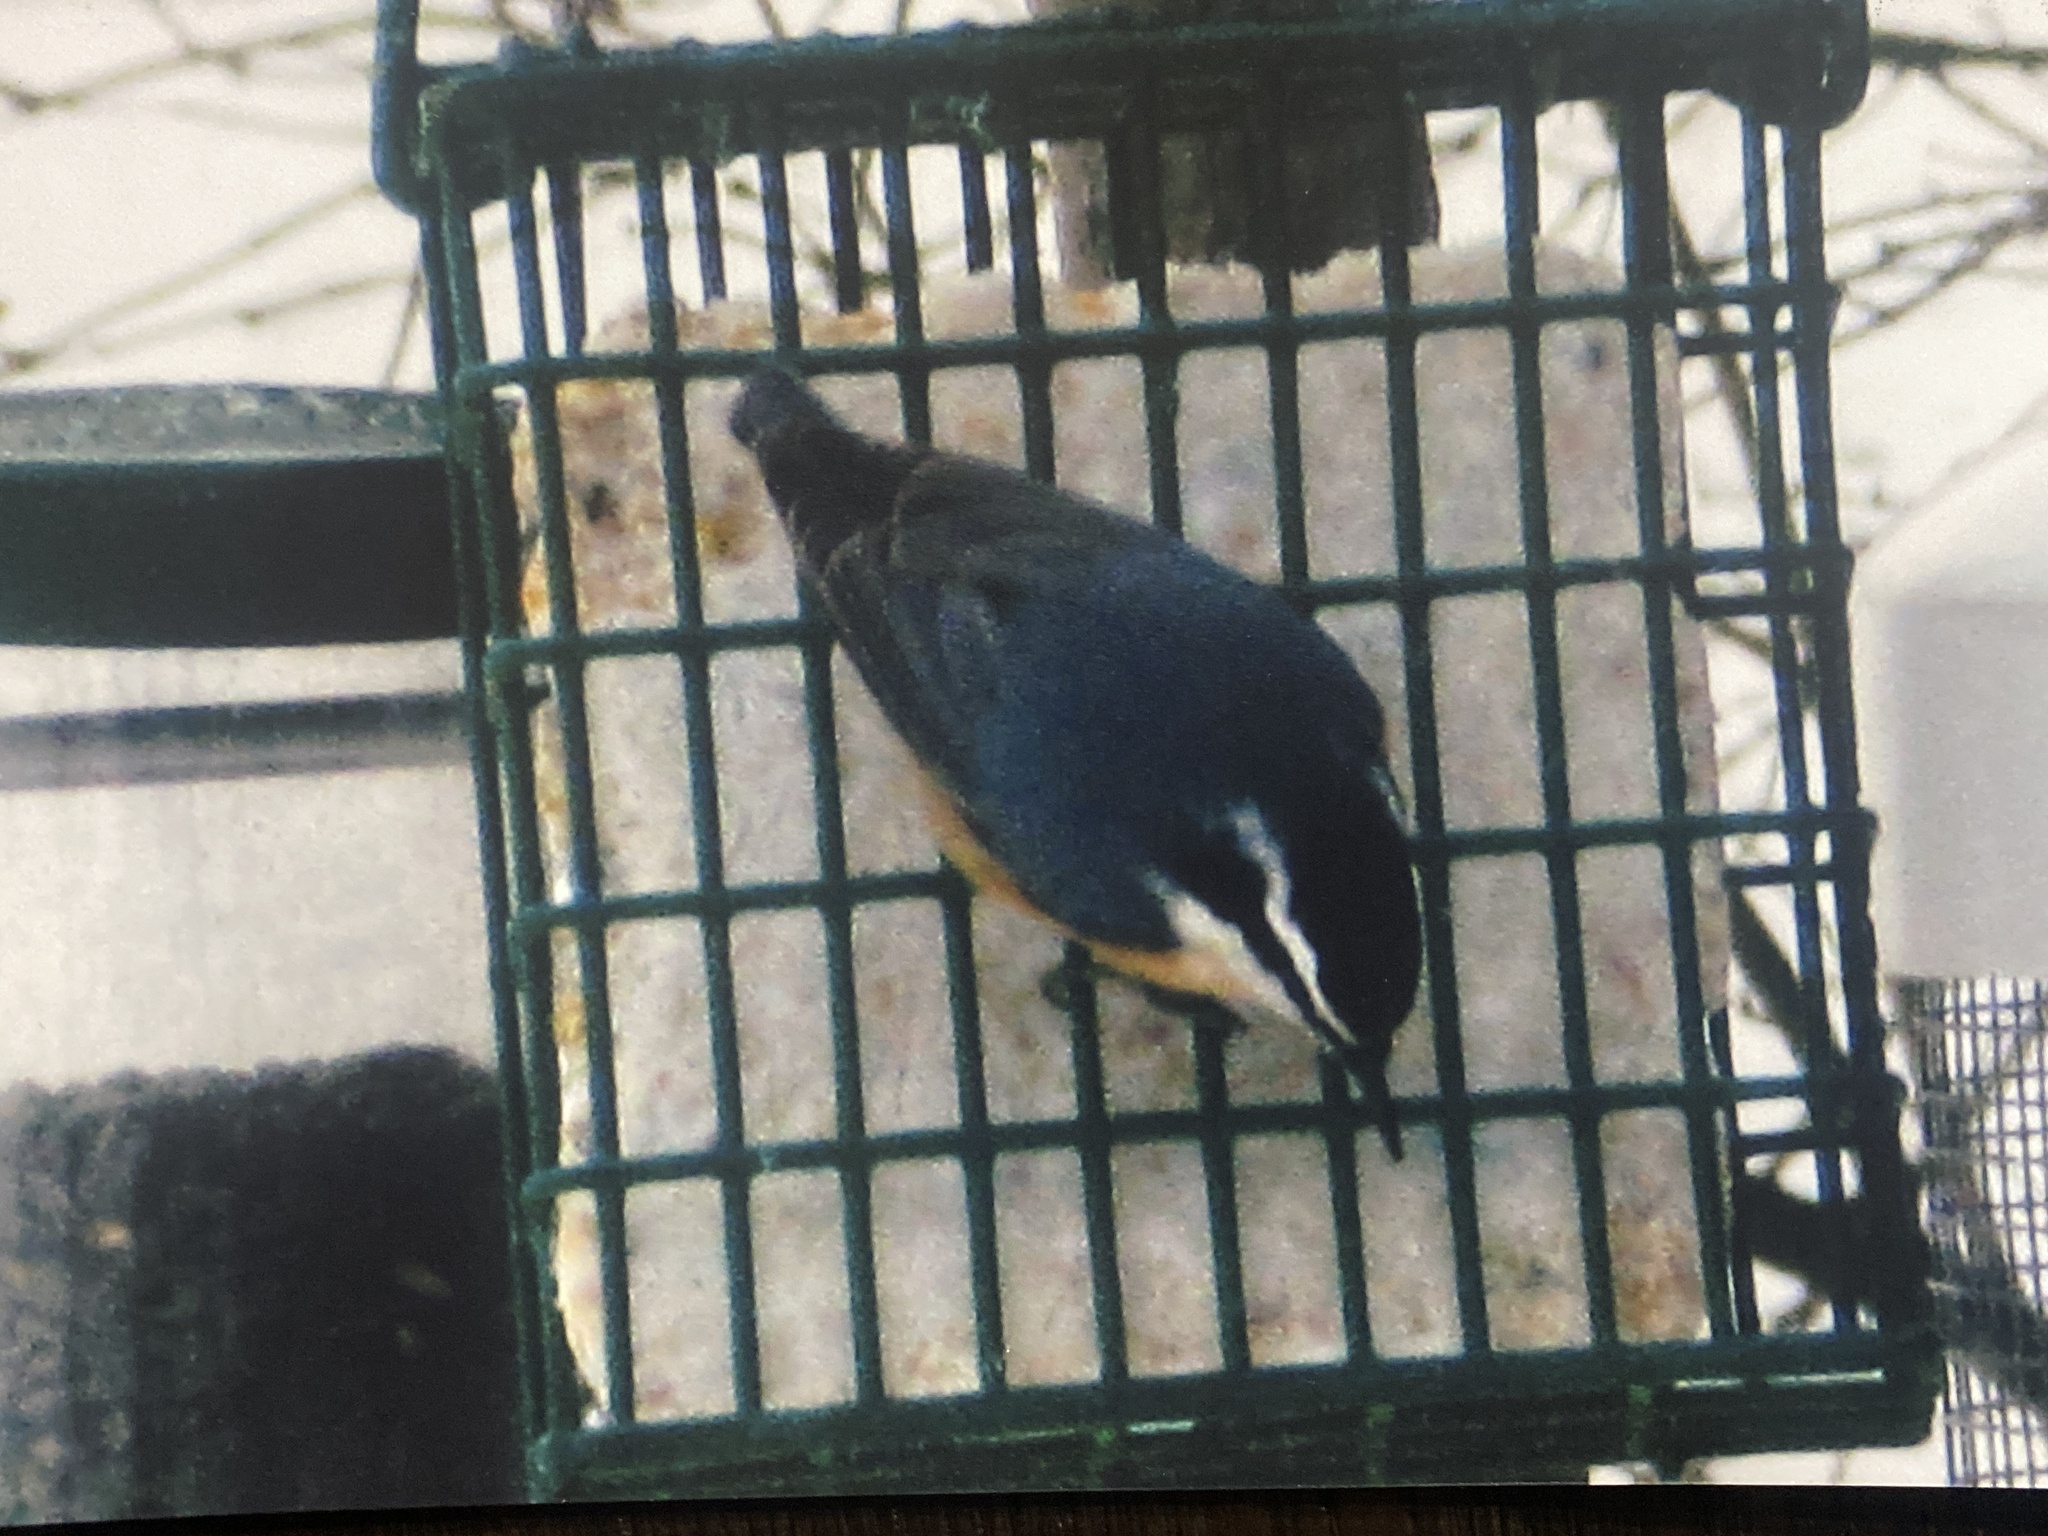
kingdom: Animalia
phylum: Chordata
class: Aves
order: Passeriformes
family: Sittidae
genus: Sitta
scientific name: Sitta canadensis
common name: Red-breasted nuthatch
